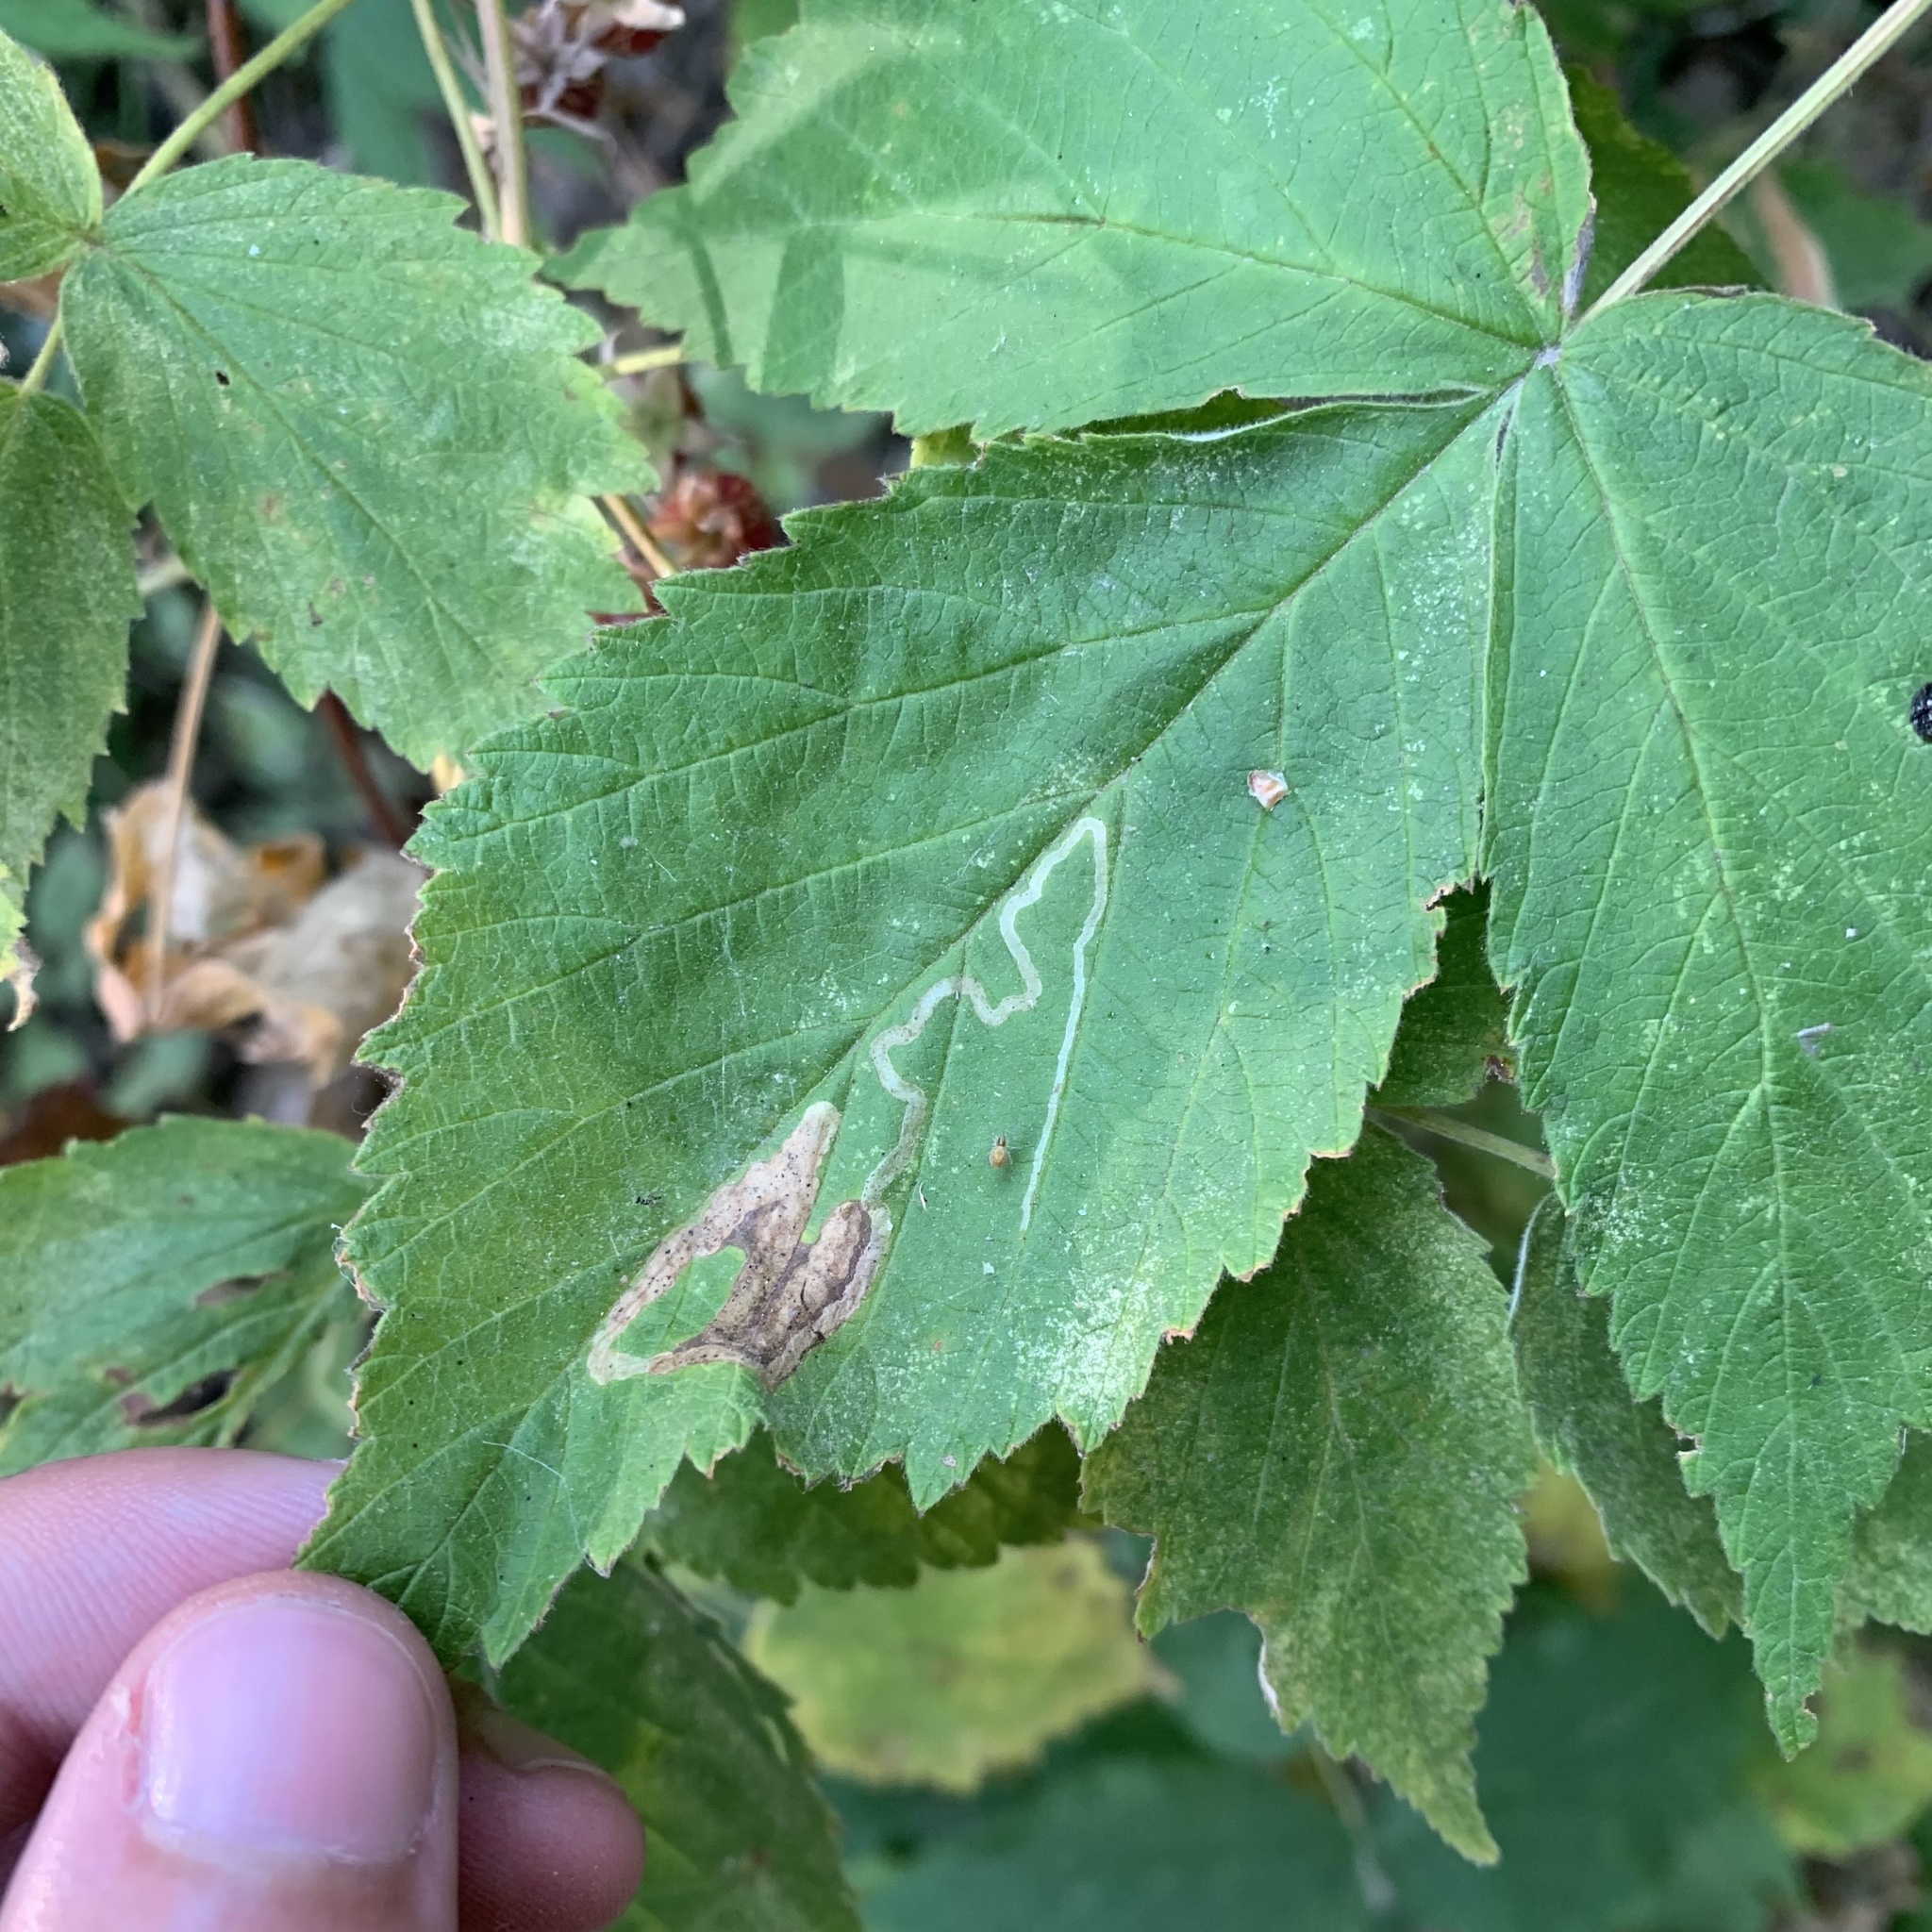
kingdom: Animalia
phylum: Arthropoda
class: Insecta
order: Diptera
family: Agromyzidae
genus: Agromyza
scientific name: Agromyza vockerothi
